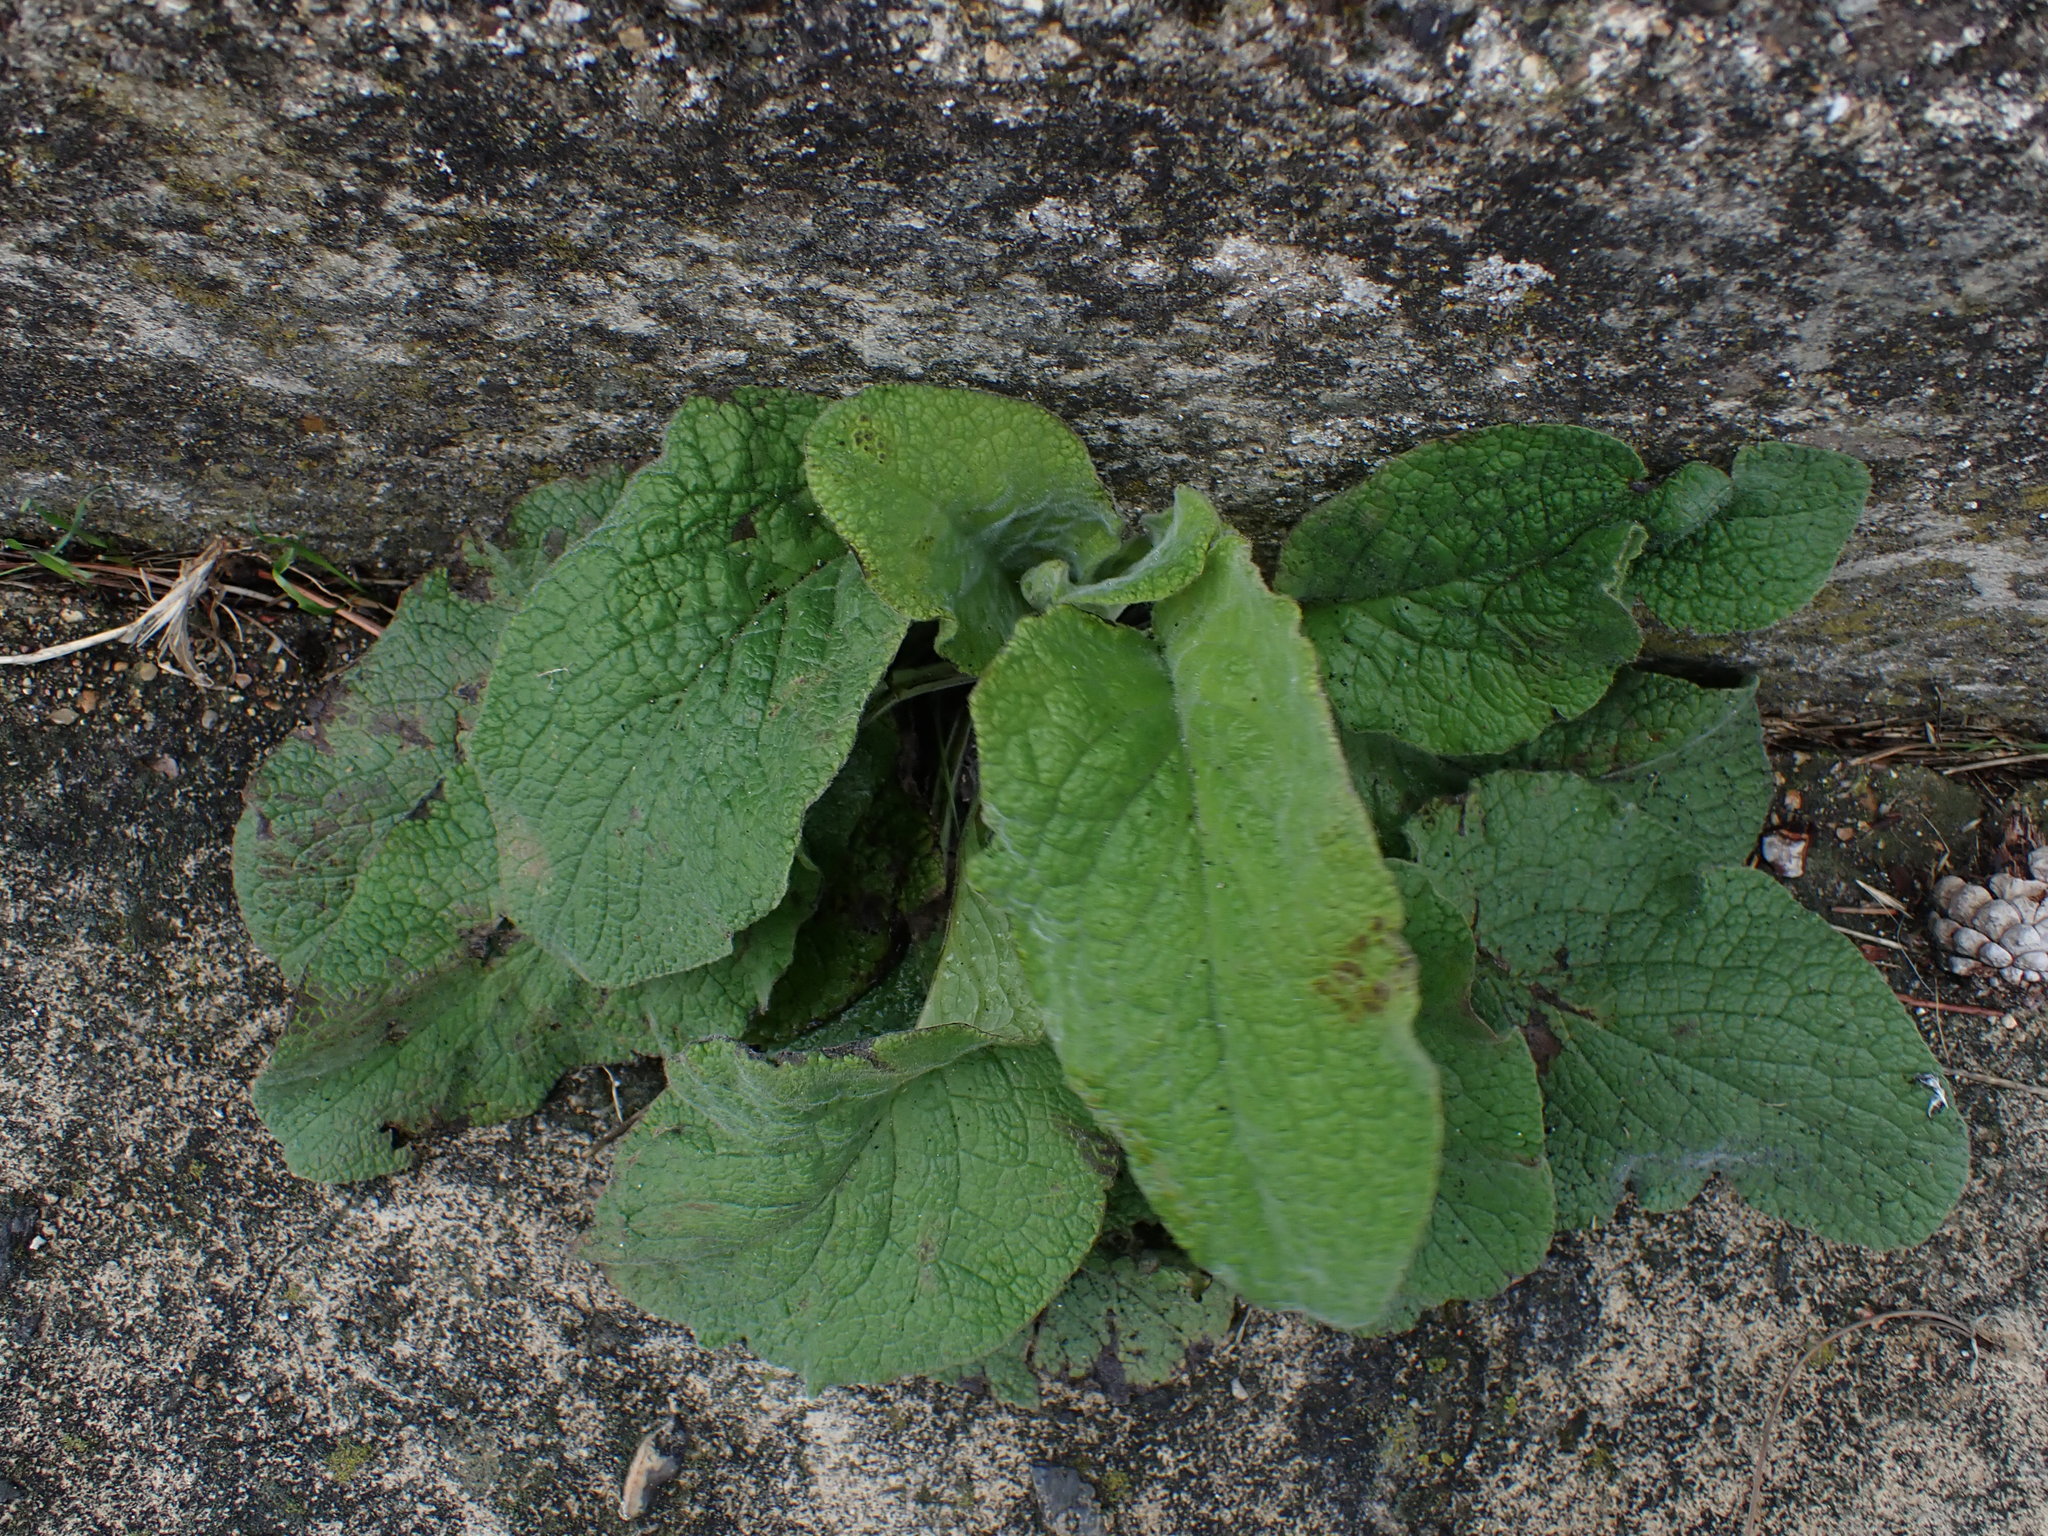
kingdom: Plantae
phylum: Tracheophyta
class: Magnoliopsida
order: Lamiales
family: Plantaginaceae
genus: Digitalis
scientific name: Digitalis purpurea
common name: Foxglove
